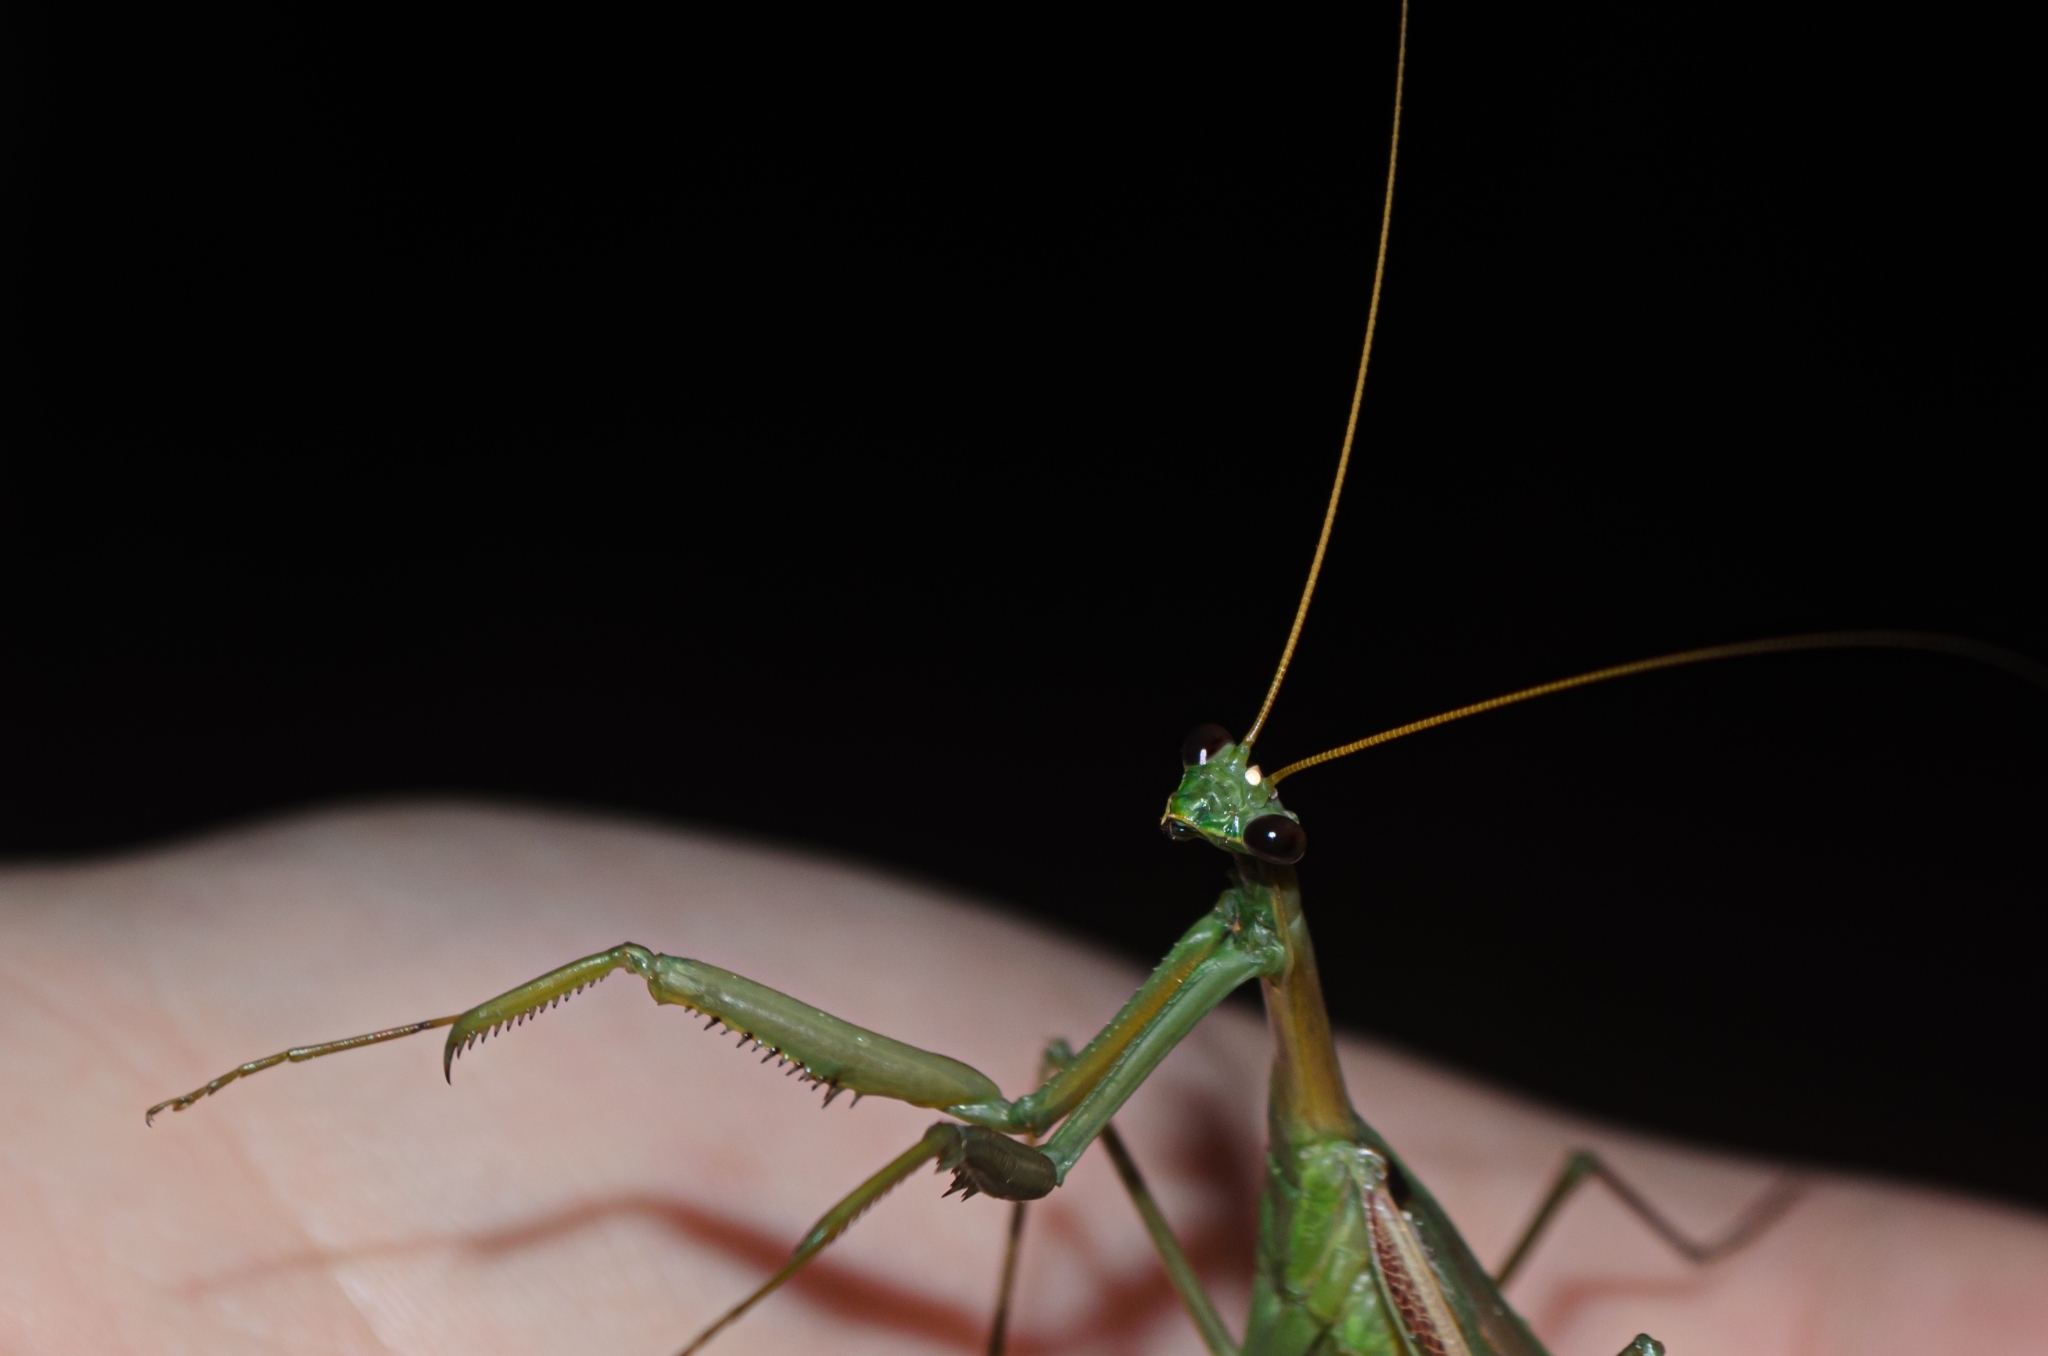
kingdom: Animalia
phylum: Arthropoda
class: Insecta
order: Mantodea
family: Coptopterygidae
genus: Coptopteryx
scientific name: Coptopteryx argentina
